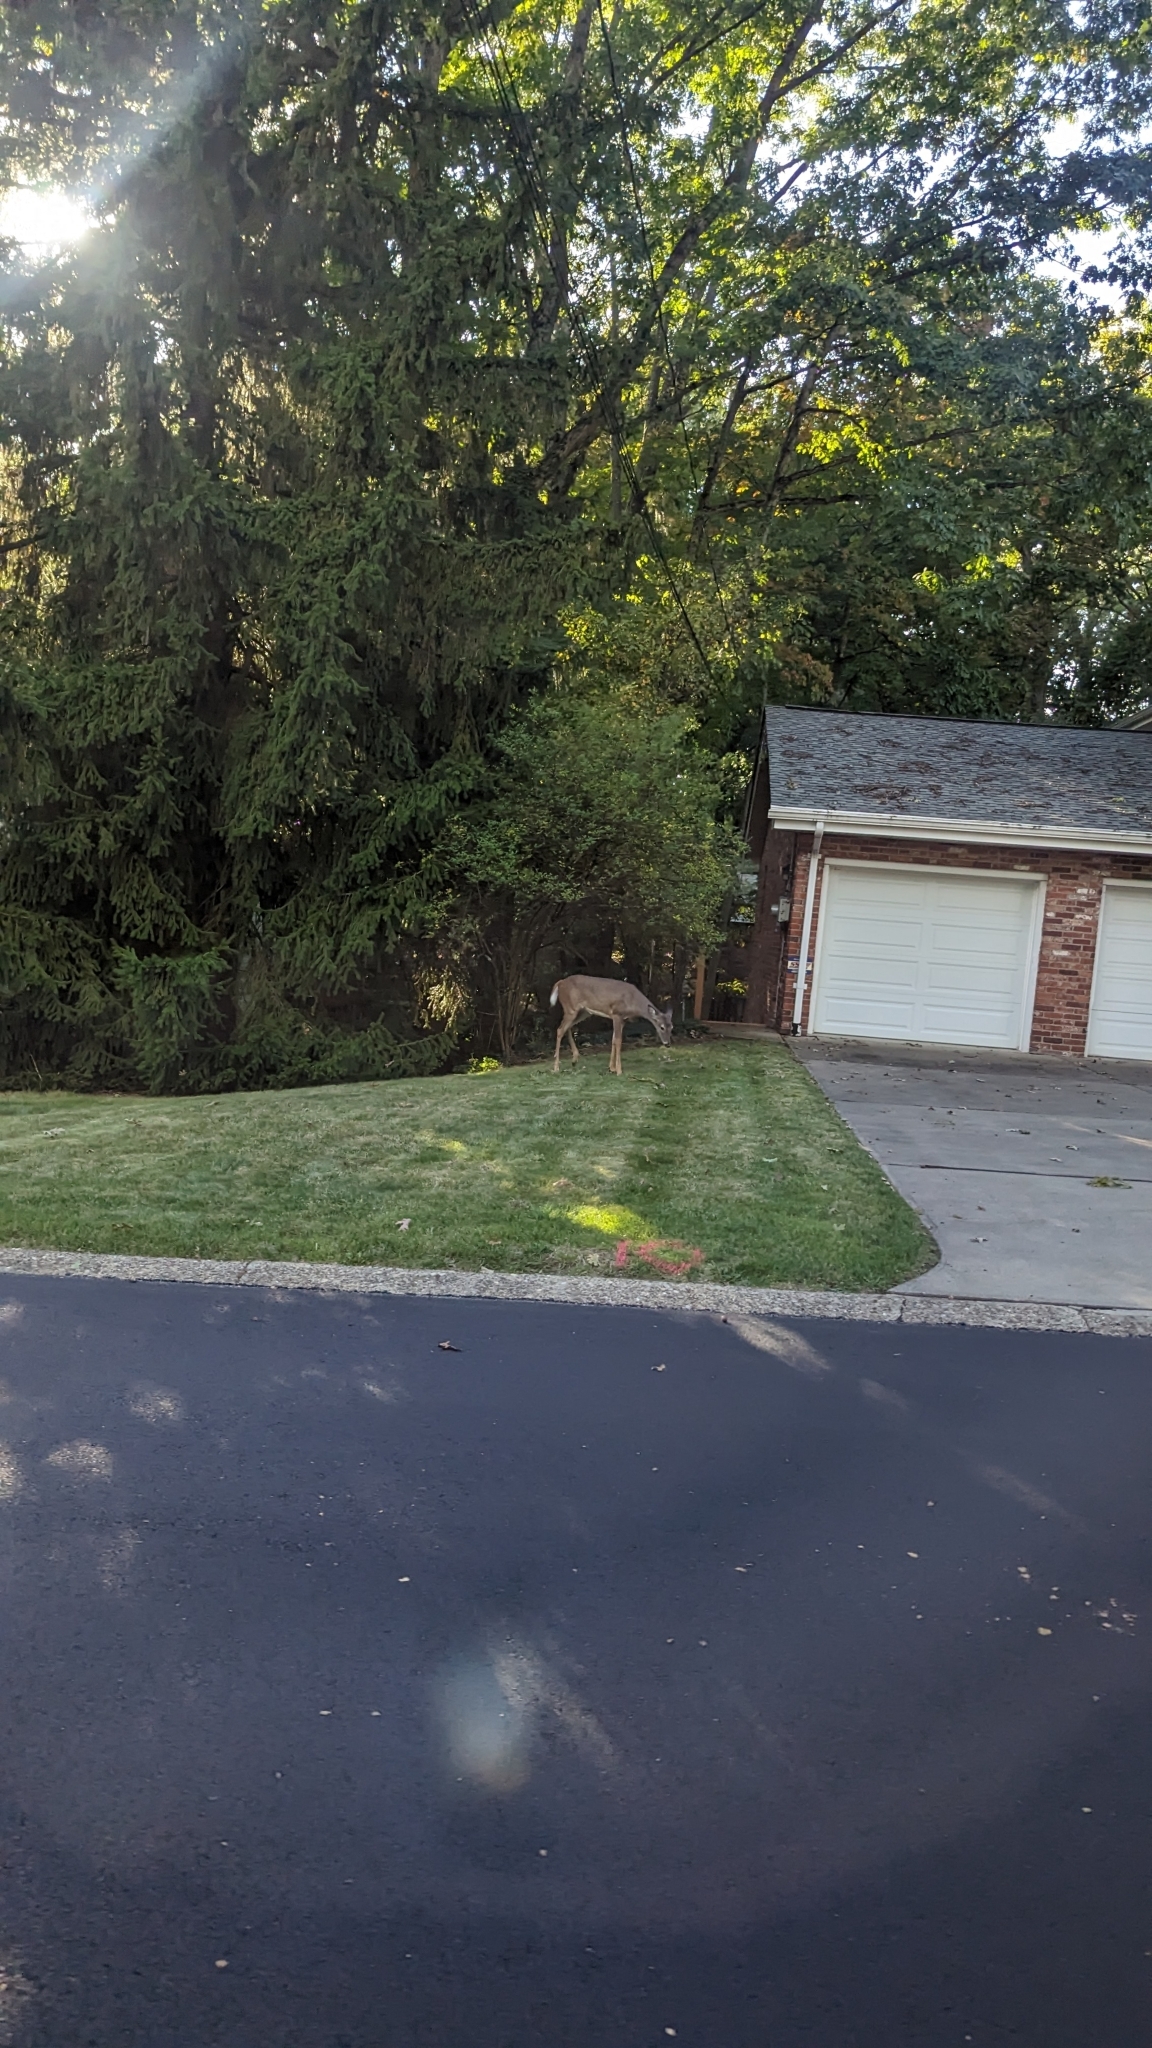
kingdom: Animalia
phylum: Chordata
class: Mammalia
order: Artiodactyla
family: Cervidae
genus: Odocoileus
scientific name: Odocoileus virginianus
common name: White-tailed deer
